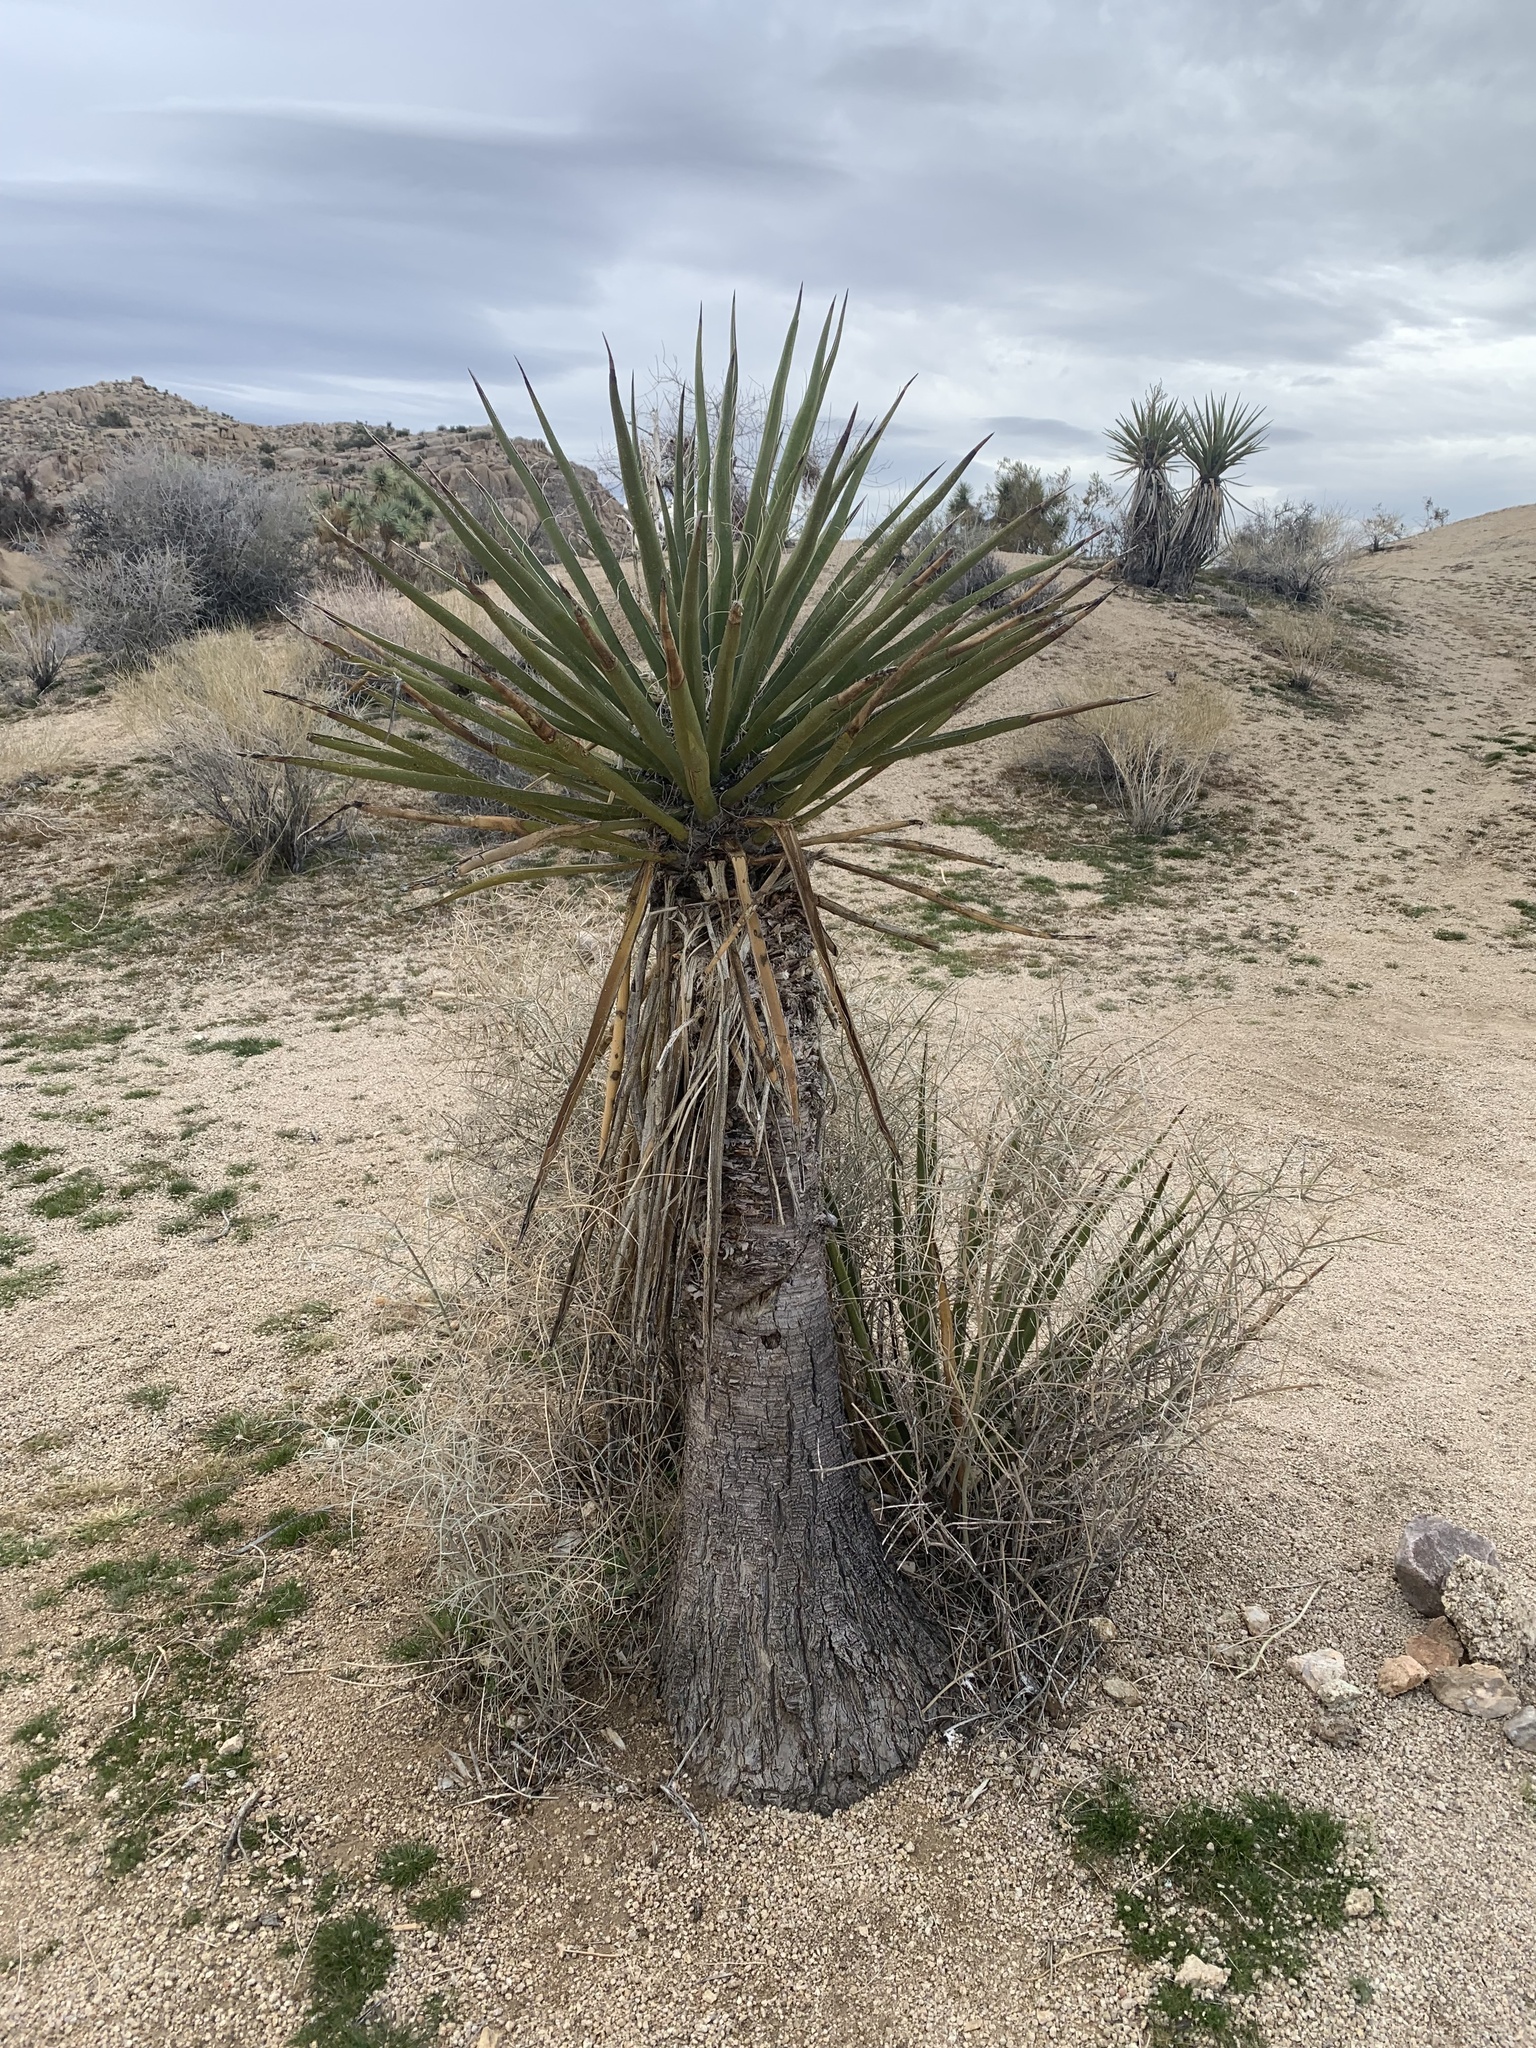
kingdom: Plantae
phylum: Tracheophyta
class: Liliopsida
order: Asparagales
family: Asparagaceae
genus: Yucca
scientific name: Yucca schidigera
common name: Mojave yucca
